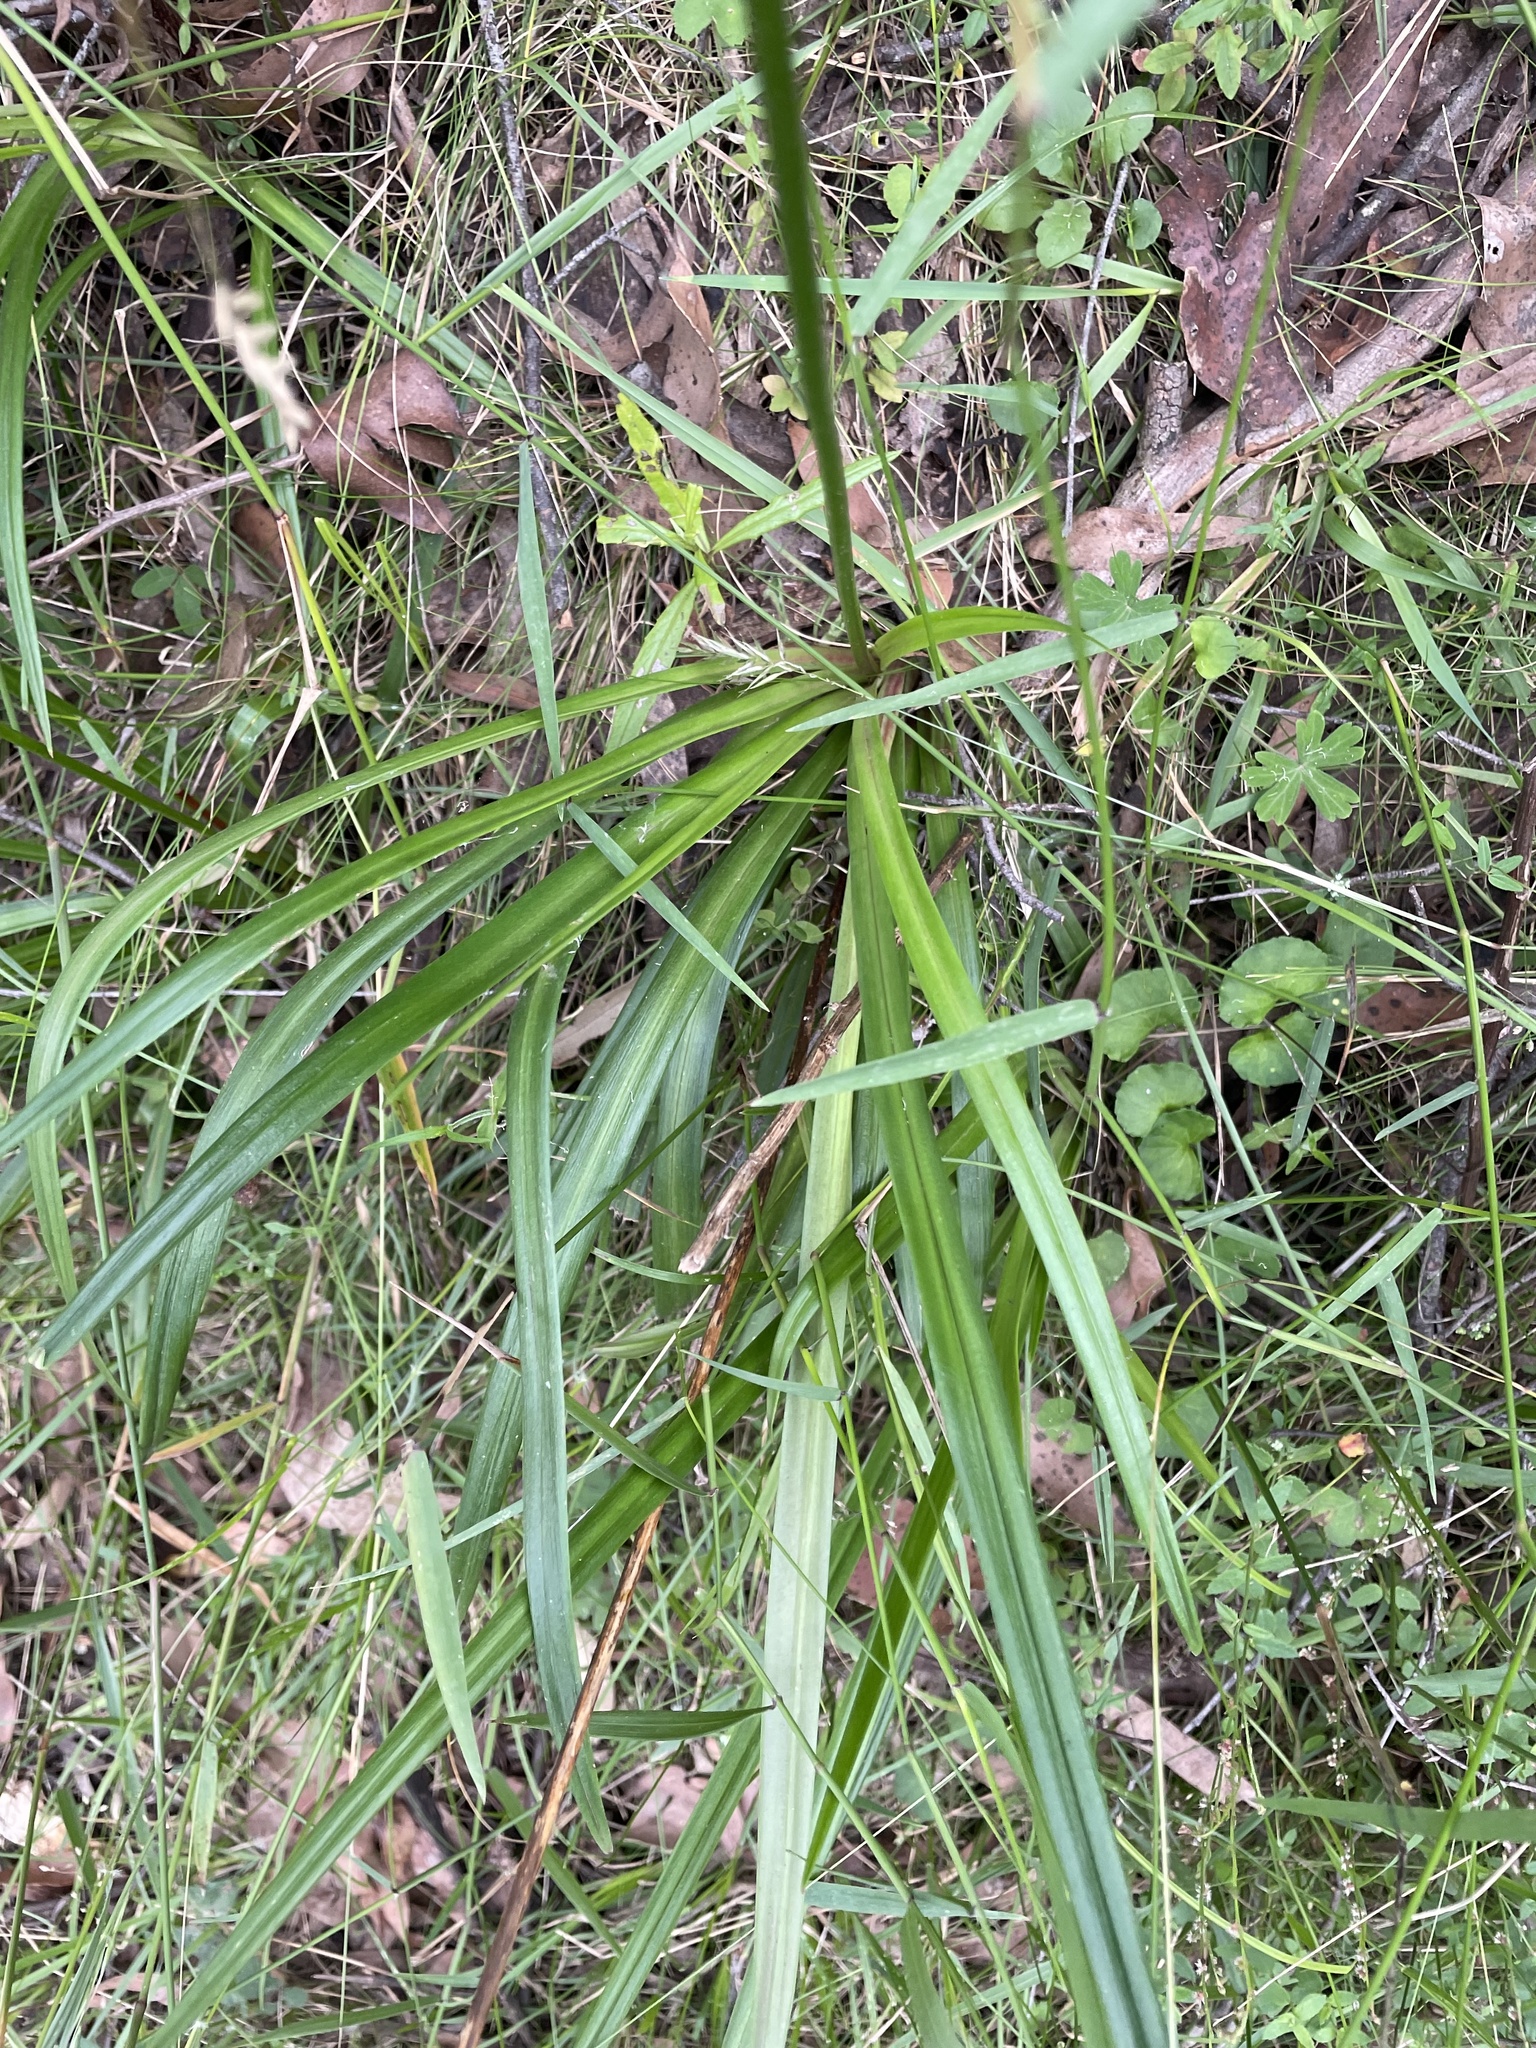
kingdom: Plantae
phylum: Tracheophyta
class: Magnoliopsida
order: Asterales
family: Stylidiaceae
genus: Stylidium
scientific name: Stylidium armeria
